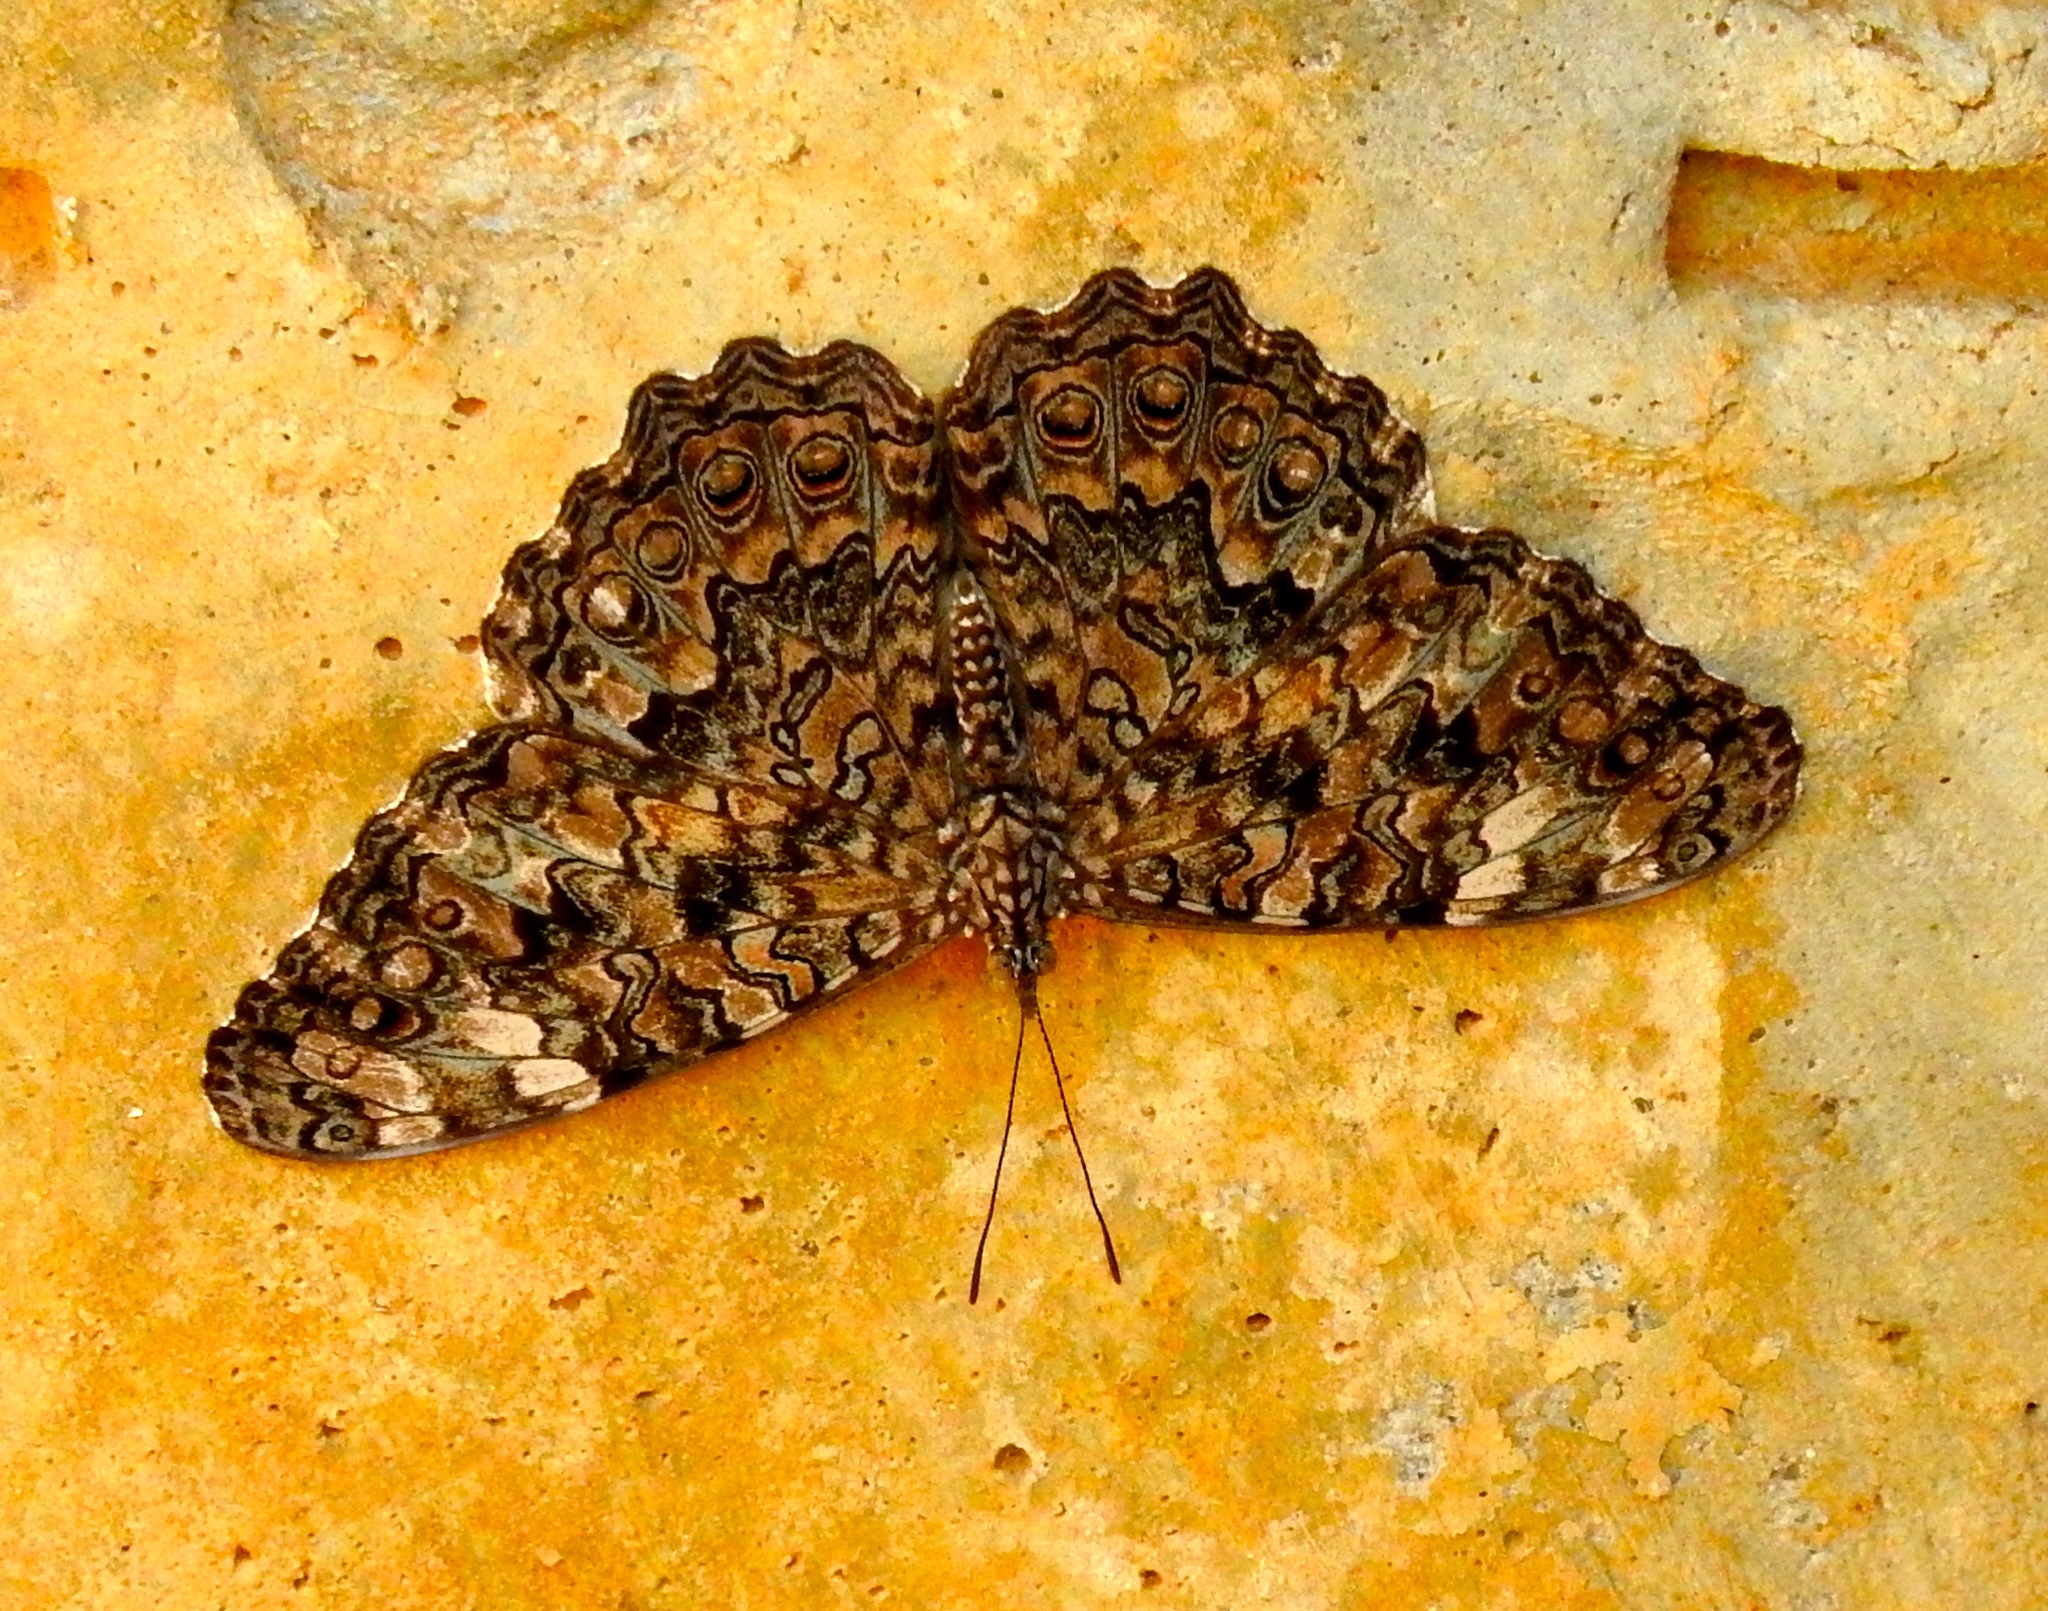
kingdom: Animalia
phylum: Arthropoda
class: Insecta
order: Lepidoptera
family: Nymphalidae
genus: Hamadryas
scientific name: Hamadryas februa
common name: Gray cracker
